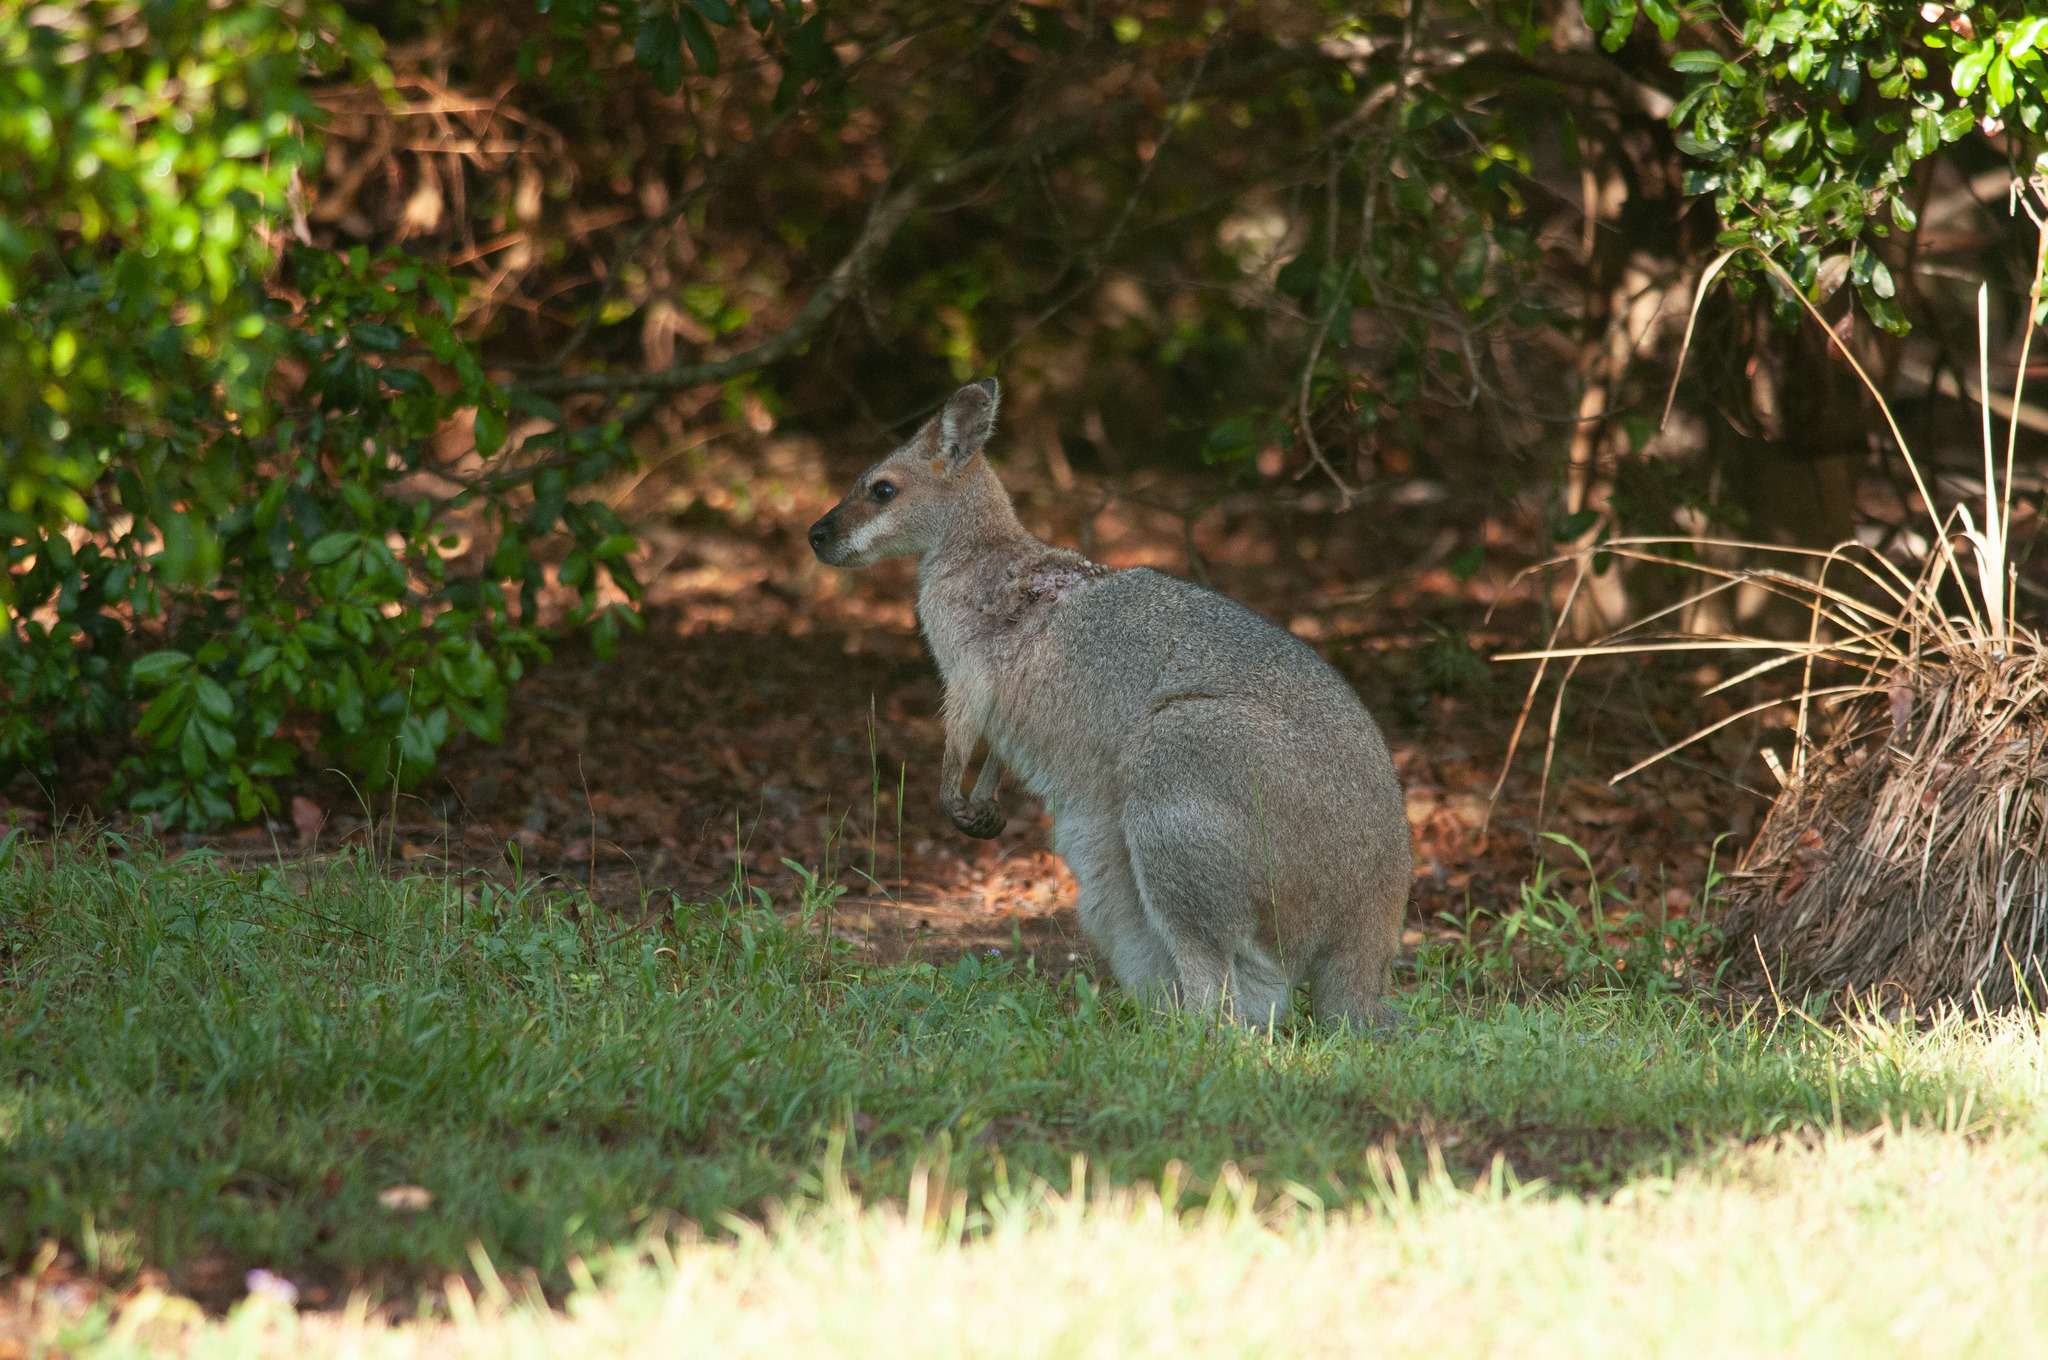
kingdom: Animalia
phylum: Chordata
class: Mammalia
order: Diprotodontia
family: Macropodidae
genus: Notamacropus
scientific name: Notamacropus rufogriseus
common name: Red-necked wallaby
